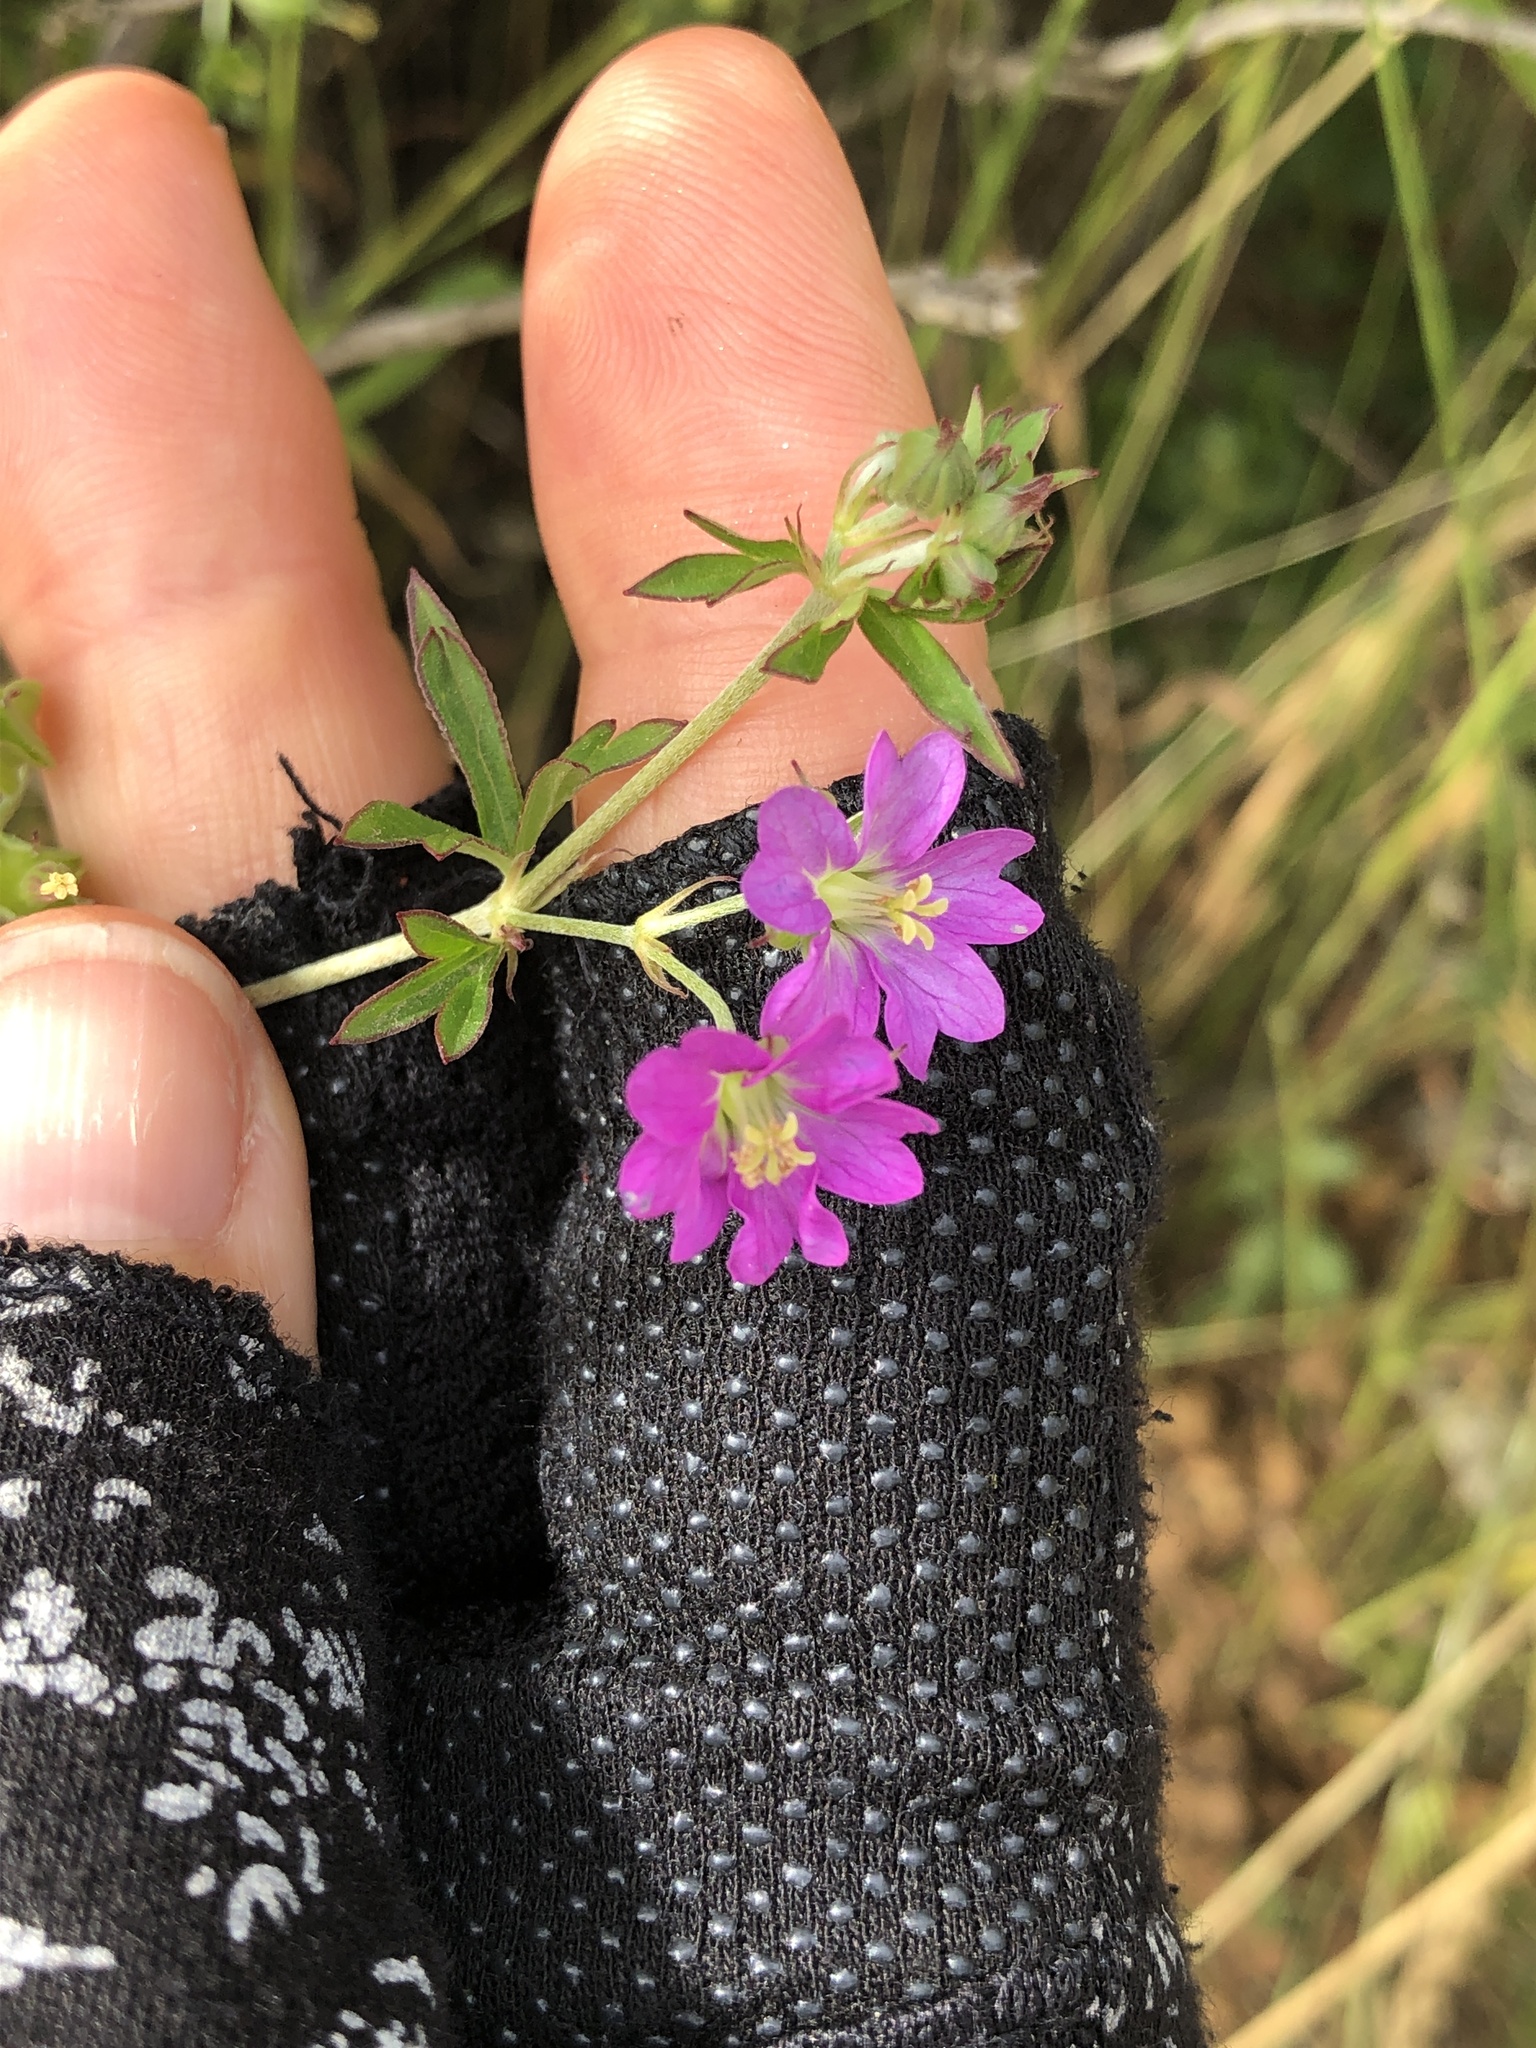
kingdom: Plantae
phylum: Tracheophyta
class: Magnoliopsida
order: Geraniales
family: Geraniaceae
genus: Geranium
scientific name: Geranium core-core
